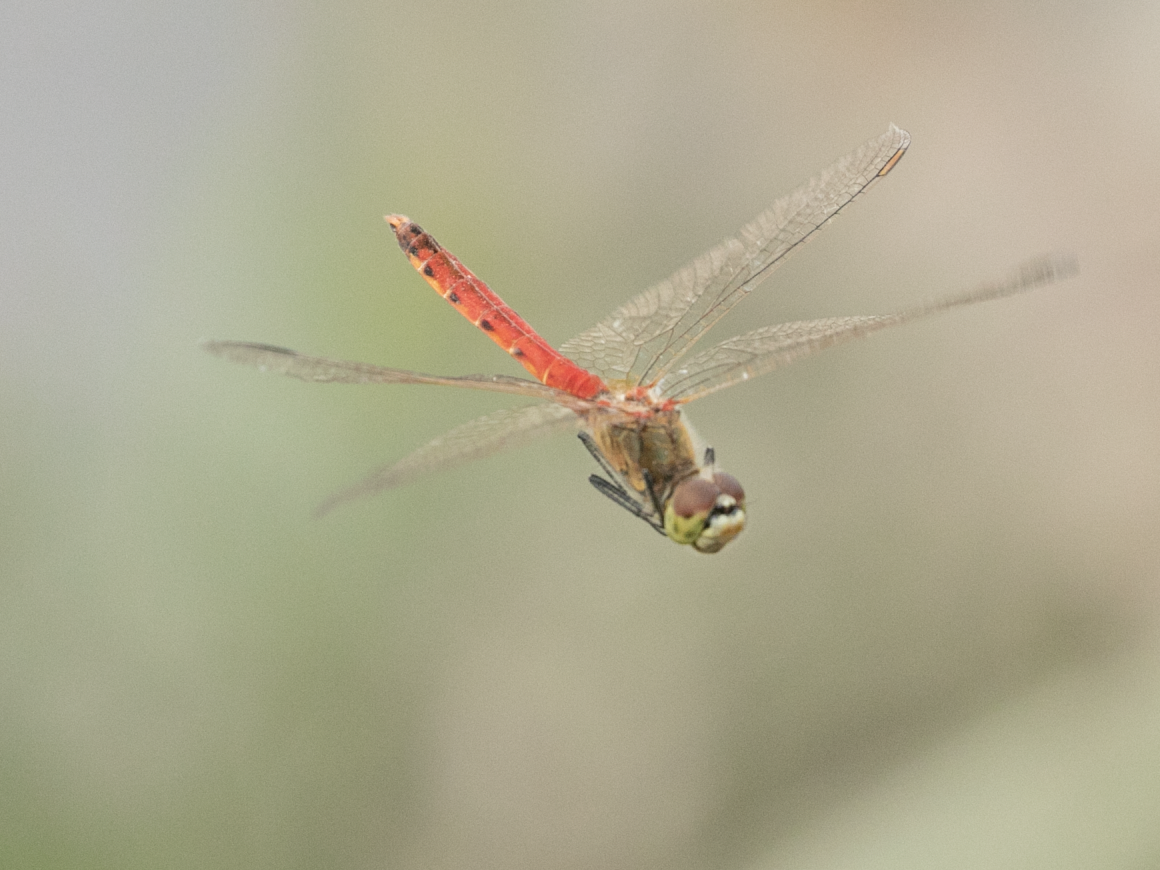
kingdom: Animalia
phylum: Arthropoda
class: Insecta
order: Odonata
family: Libellulidae
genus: Sympetrum
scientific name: Sympetrum depressiusculum
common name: Spotted darter
